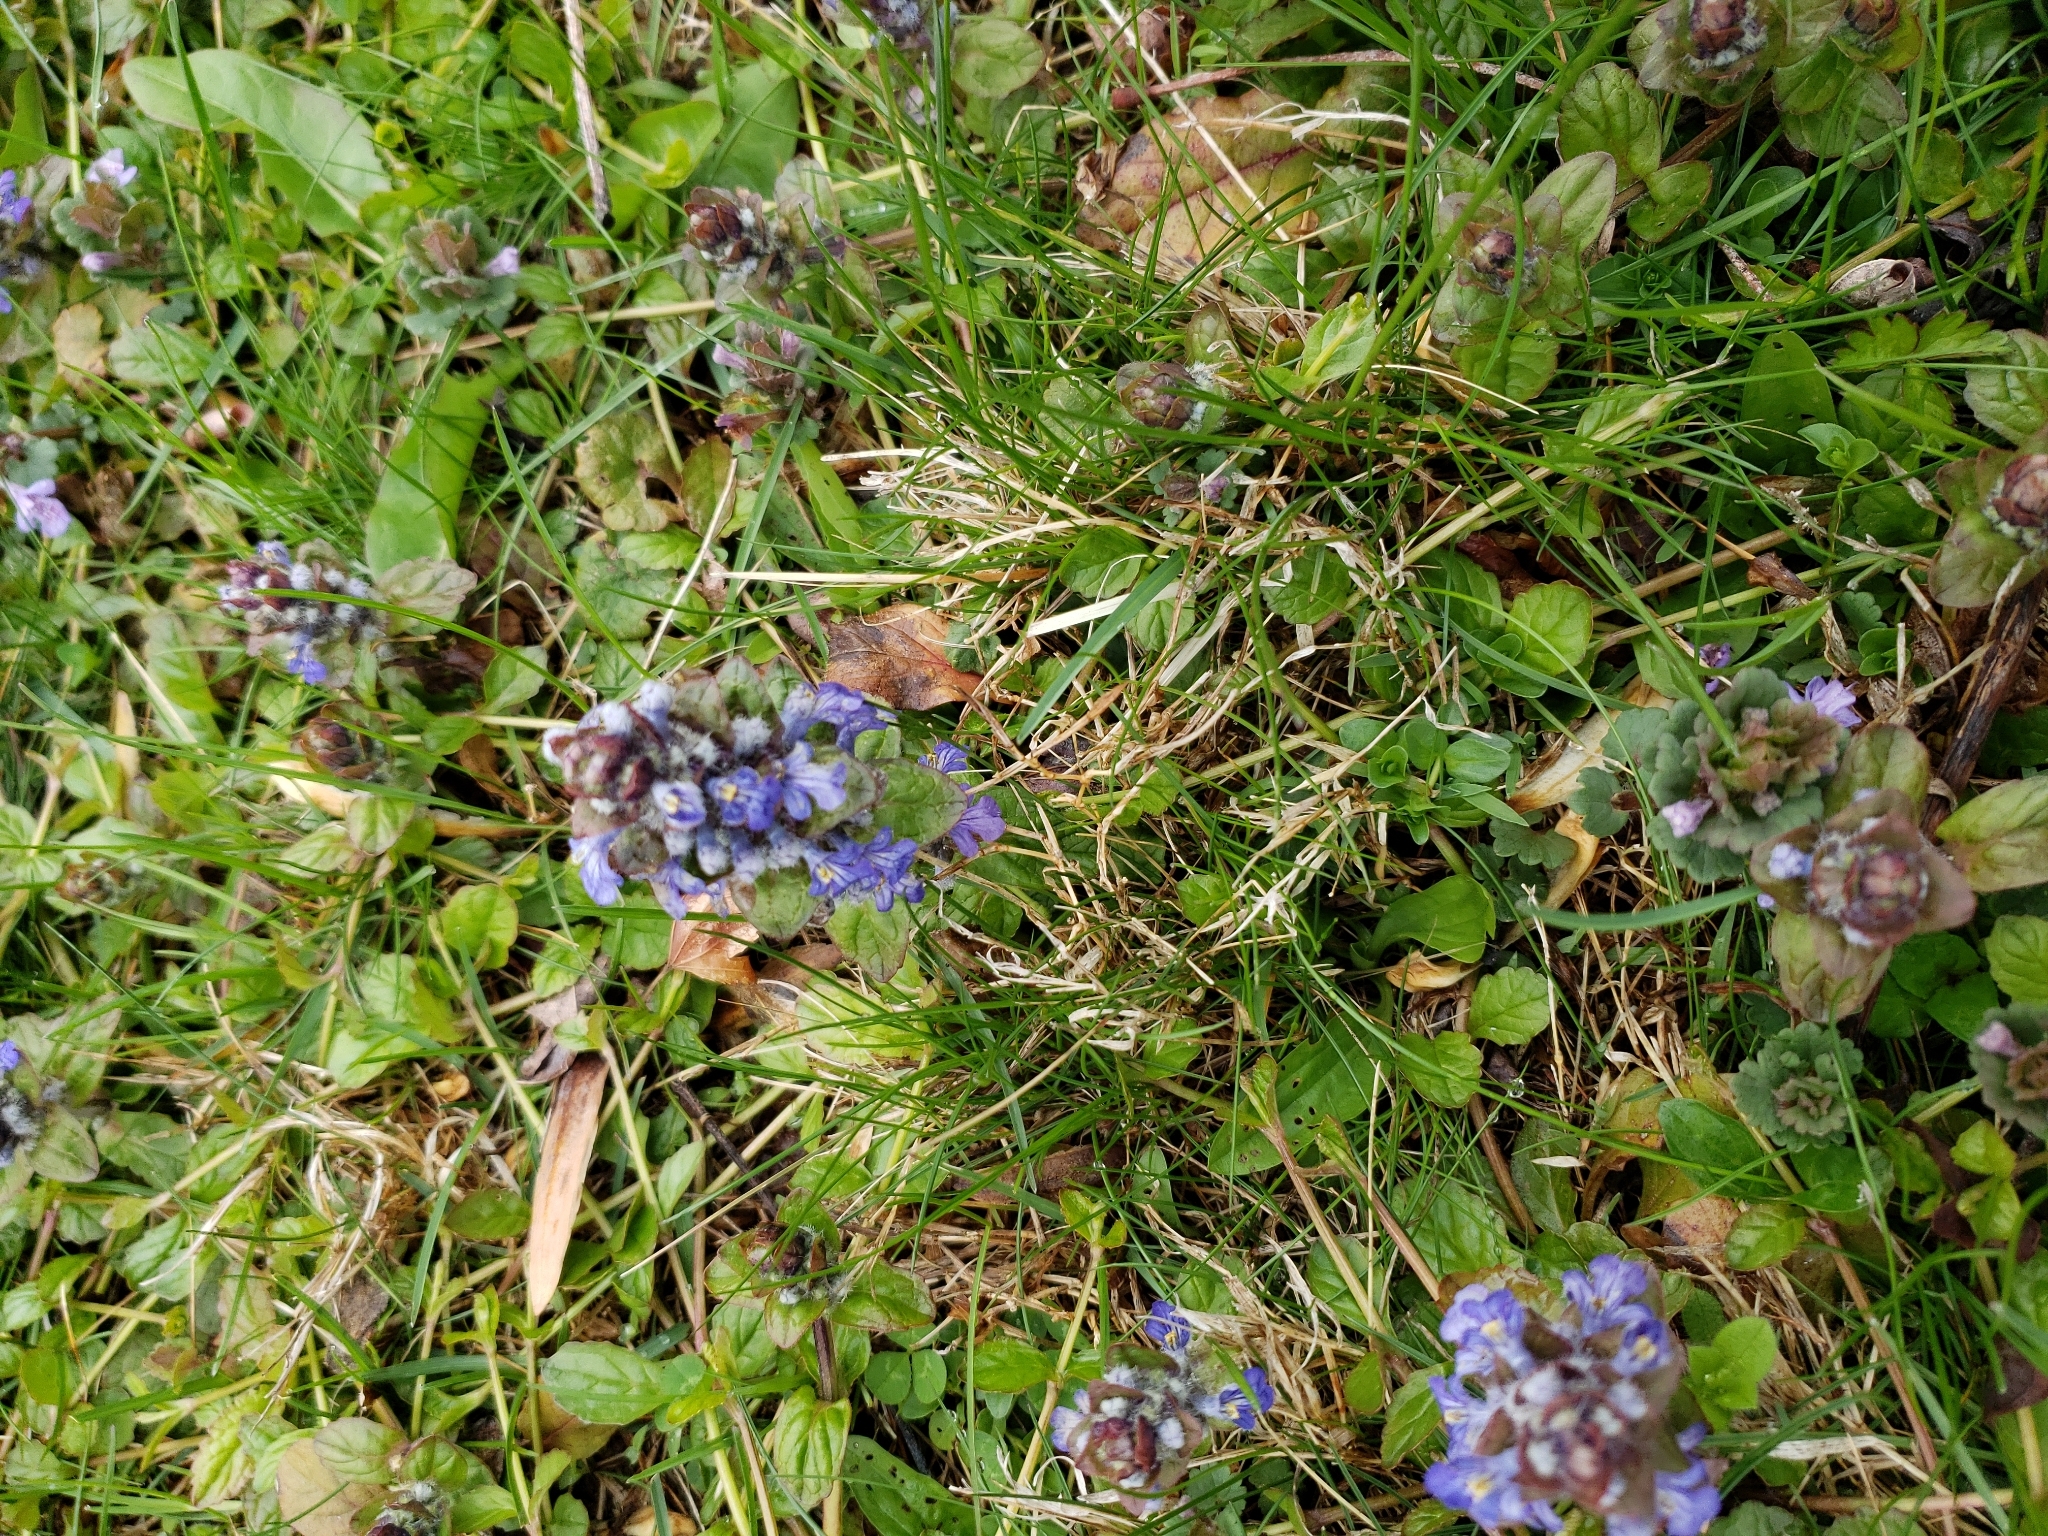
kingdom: Plantae
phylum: Tracheophyta
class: Magnoliopsida
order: Lamiales
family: Lamiaceae
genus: Ajuga
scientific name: Ajuga reptans
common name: Bugle
